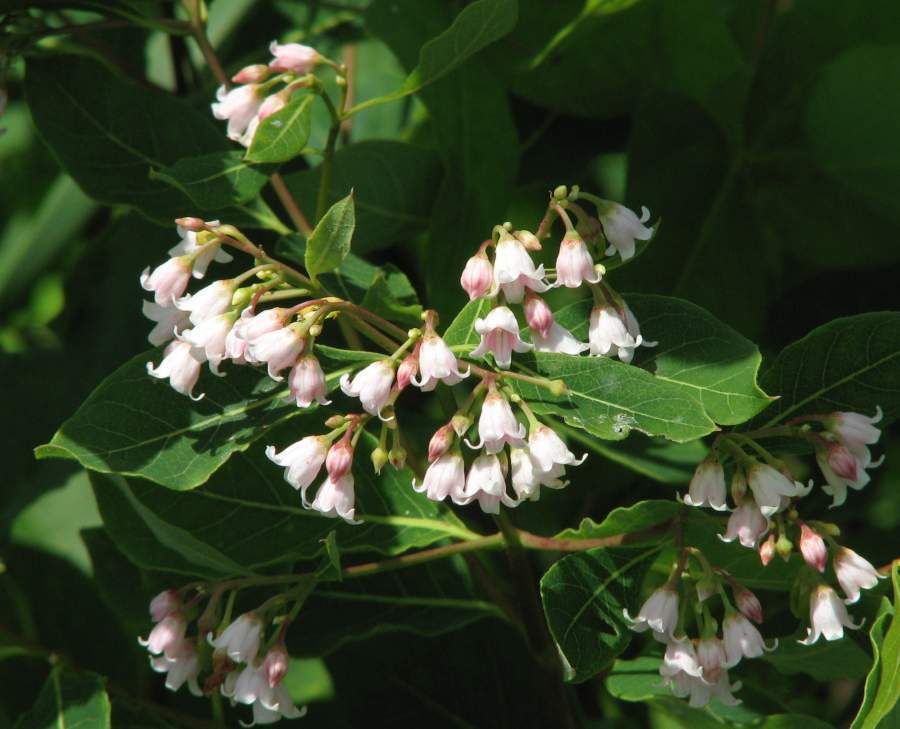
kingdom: Plantae
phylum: Tracheophyta
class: Magnoliopsida
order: Gentianales
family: Apocynaceae
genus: Apocynum
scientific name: Apocynum androsaemifolium
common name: Spreading dogbane
